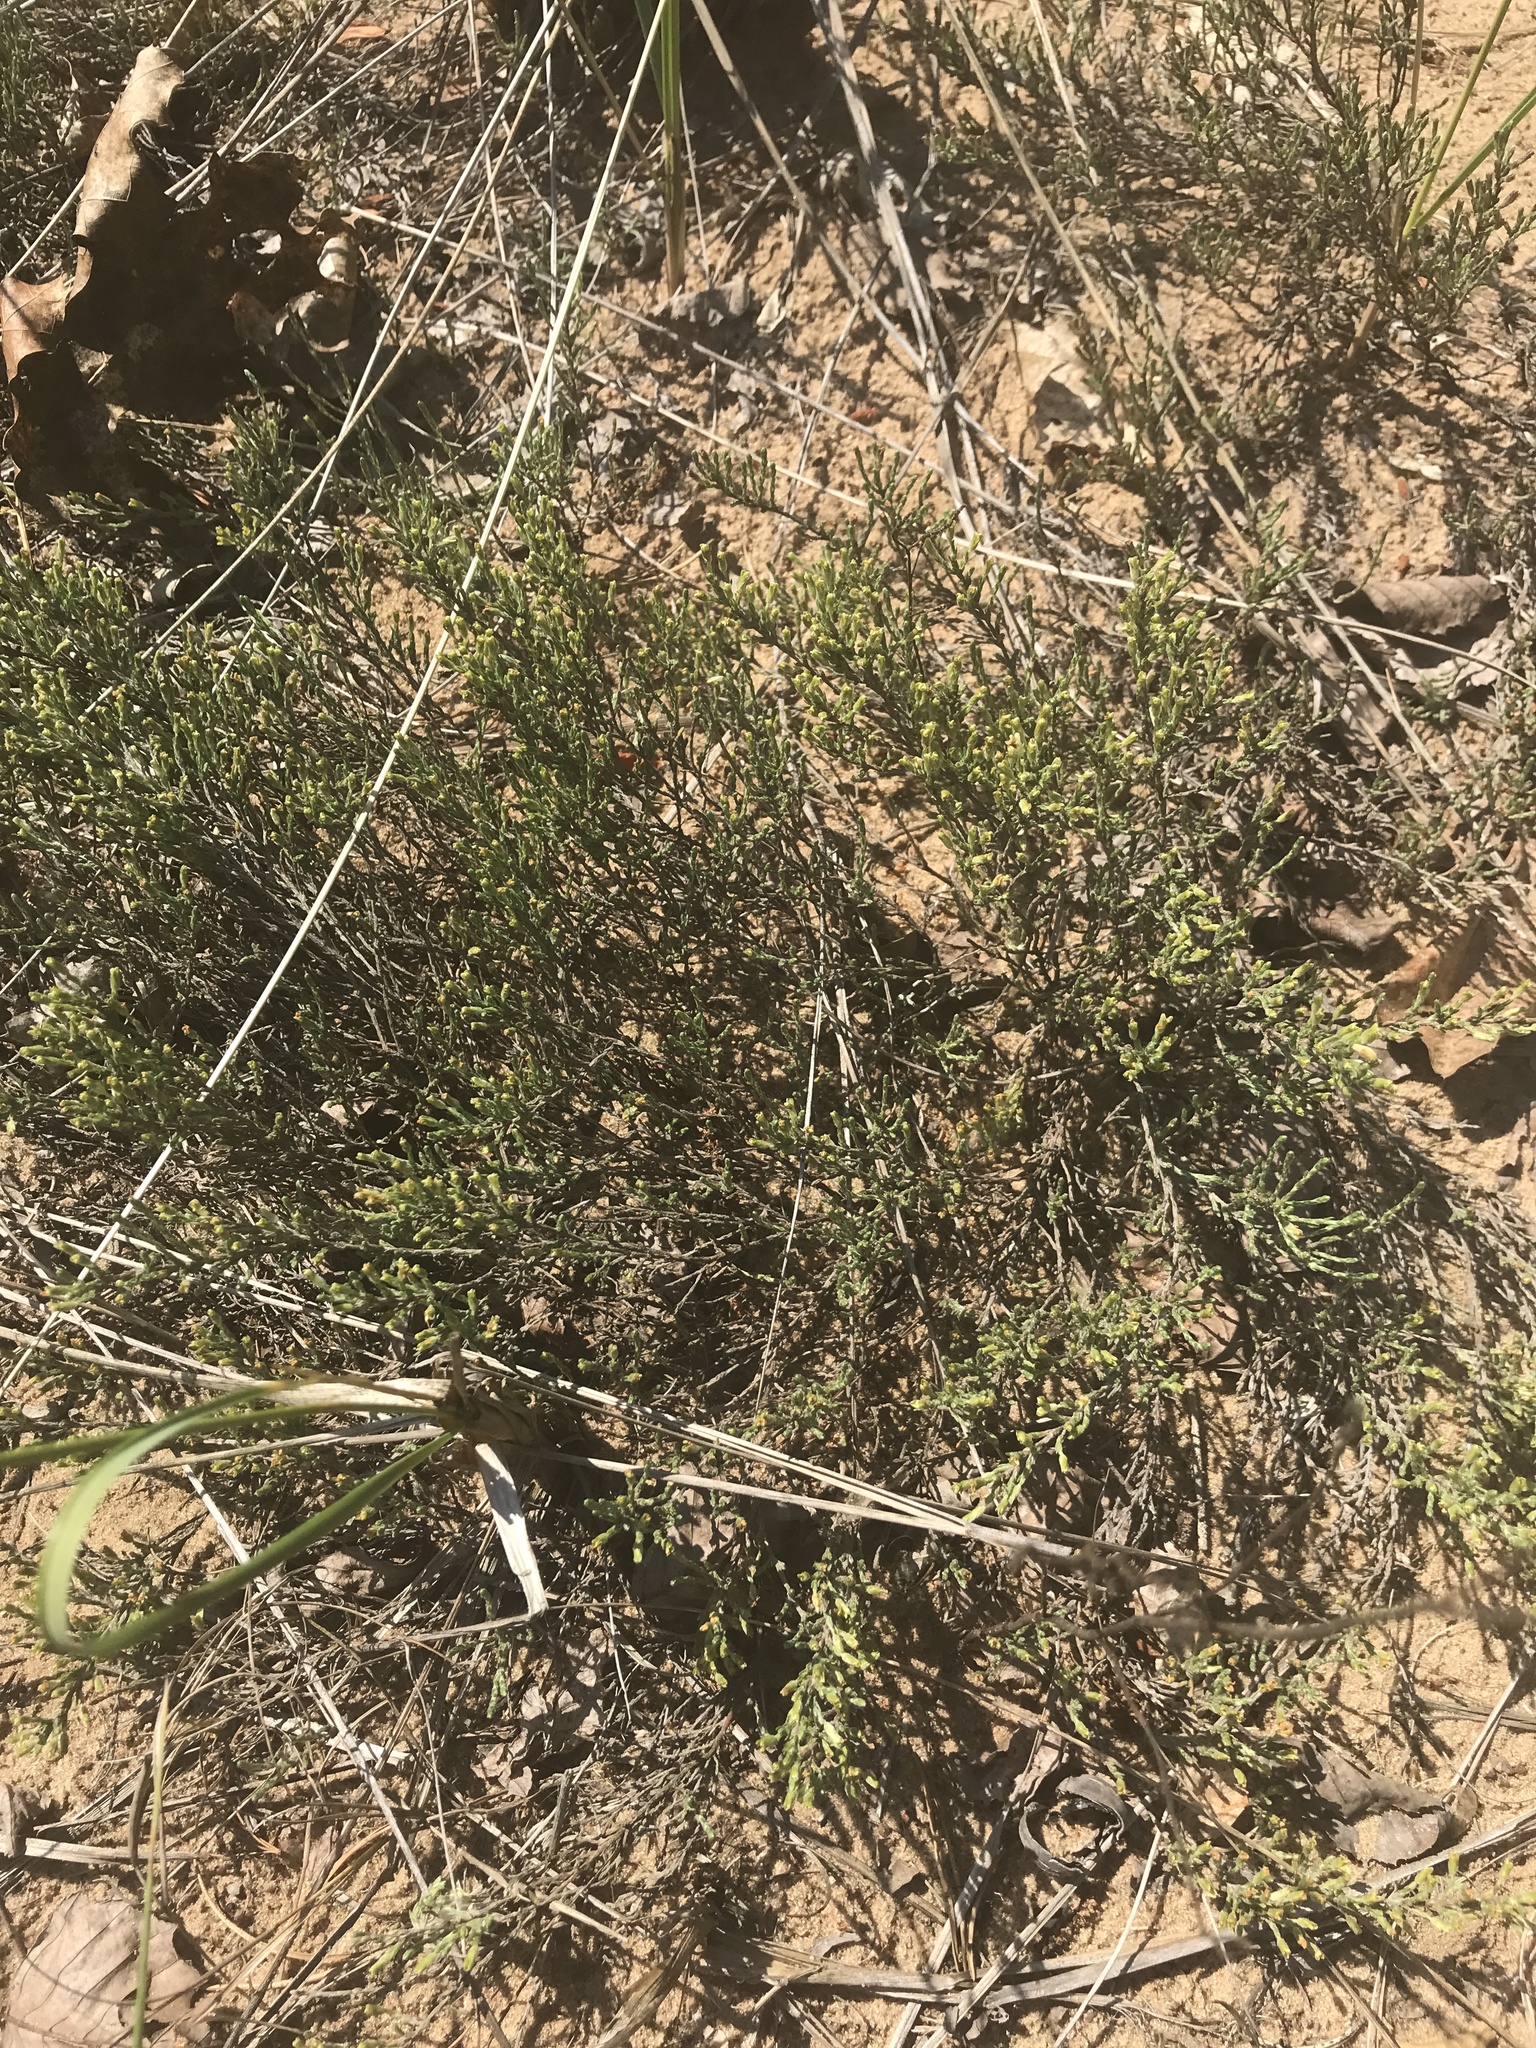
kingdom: Plantae
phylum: Tracheophyta
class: Magnoliopsida
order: Malvales
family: Cistaceae
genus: Hudsonia
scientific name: Hudsonia tomentosa
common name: Beach-heath
